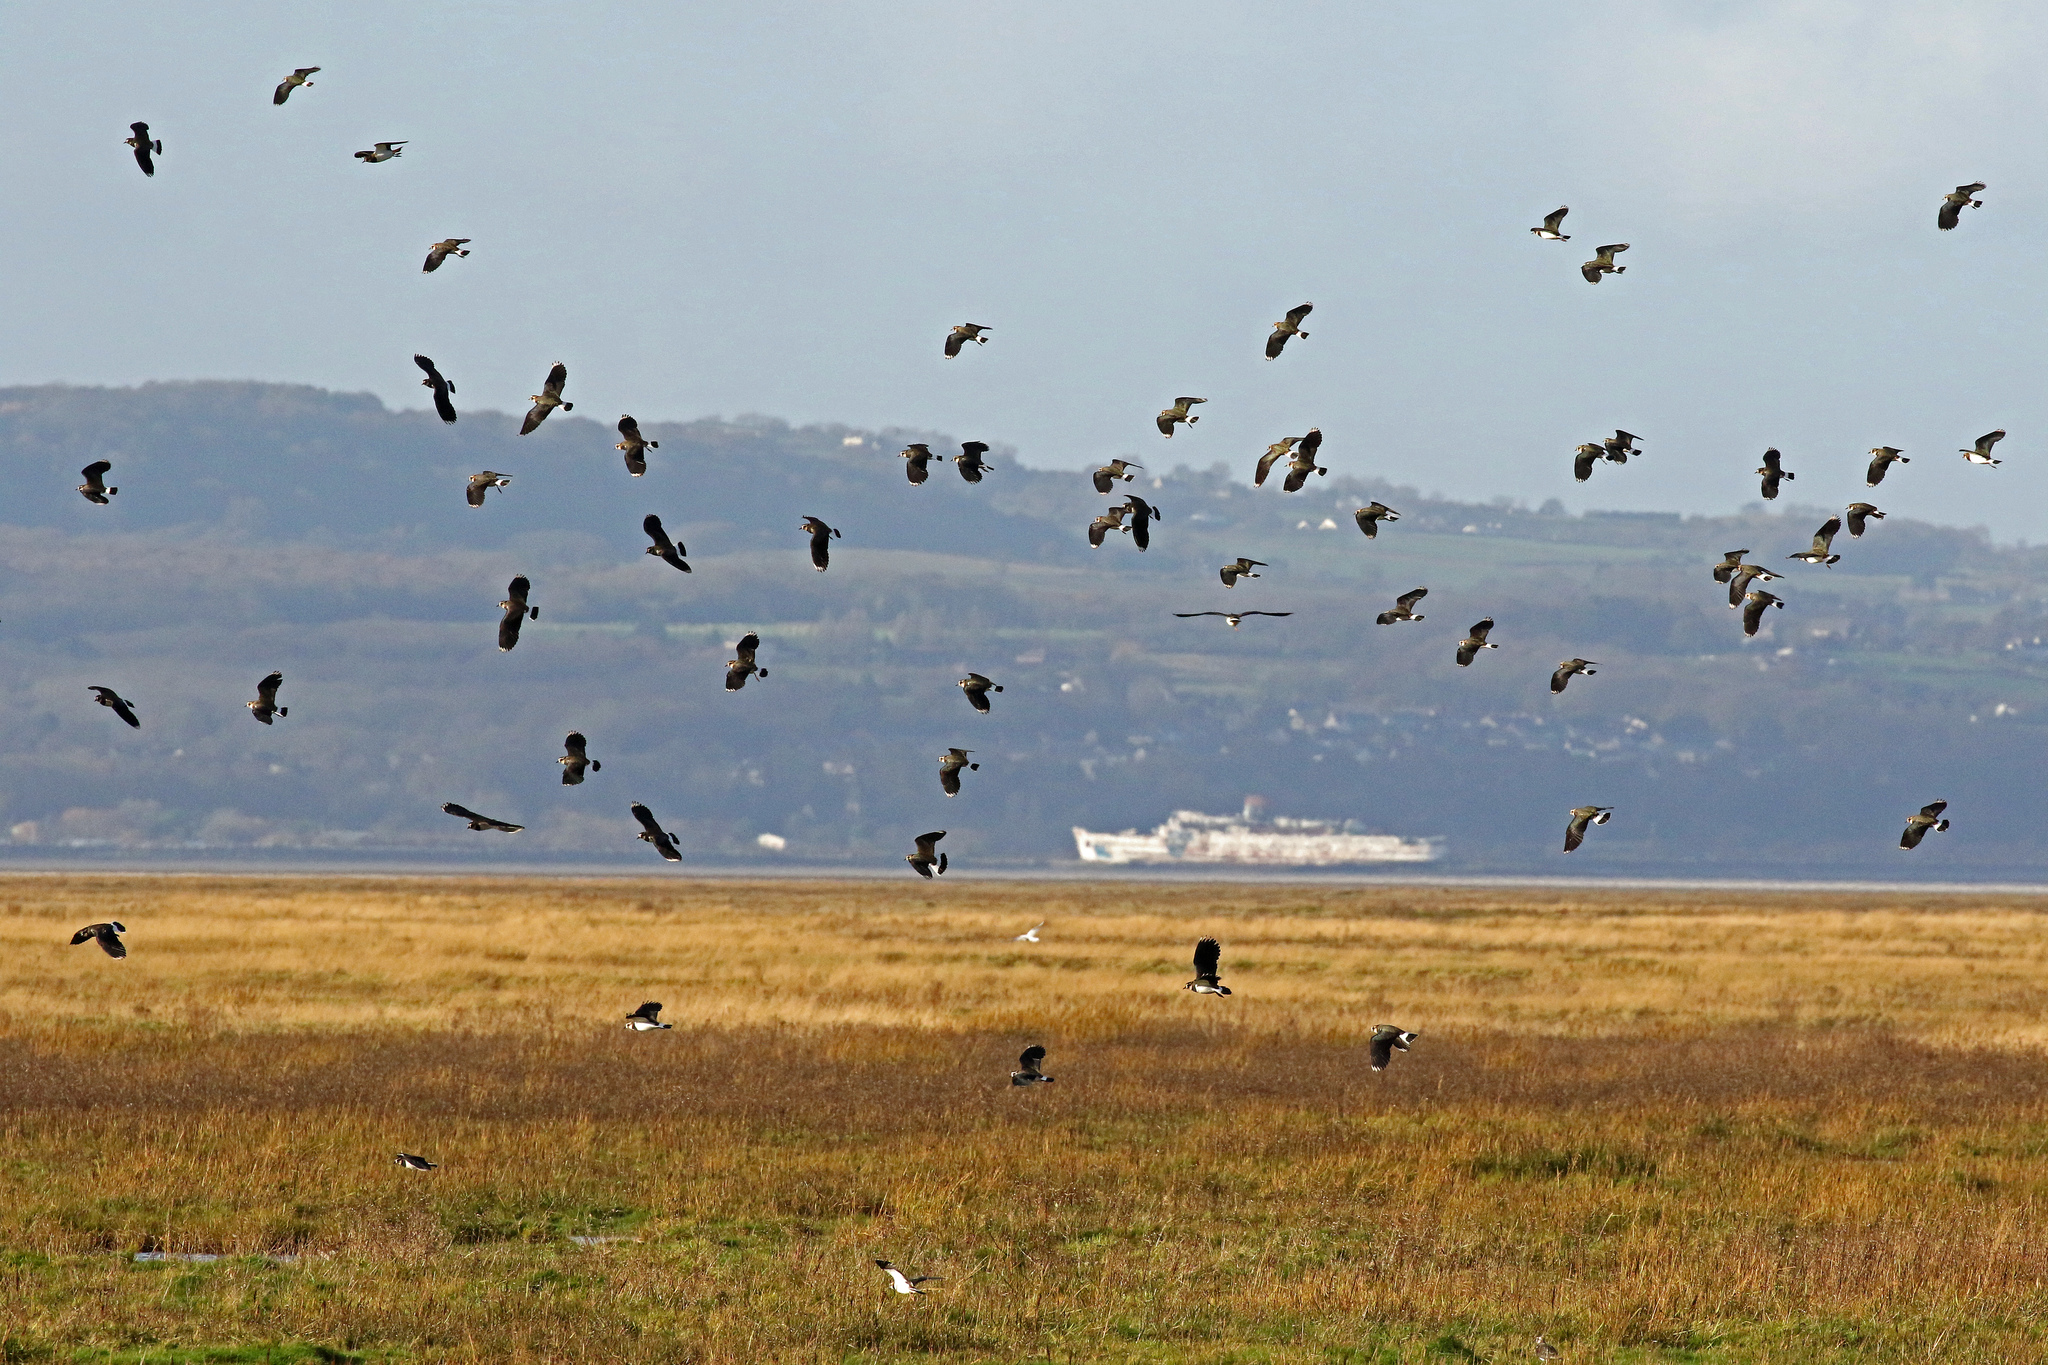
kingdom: Animalia
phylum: Chordata
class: Aves
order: Charadriiformes
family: Charadriidae
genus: Vanellus
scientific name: Vanellus vanellus
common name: Northern lapwing
